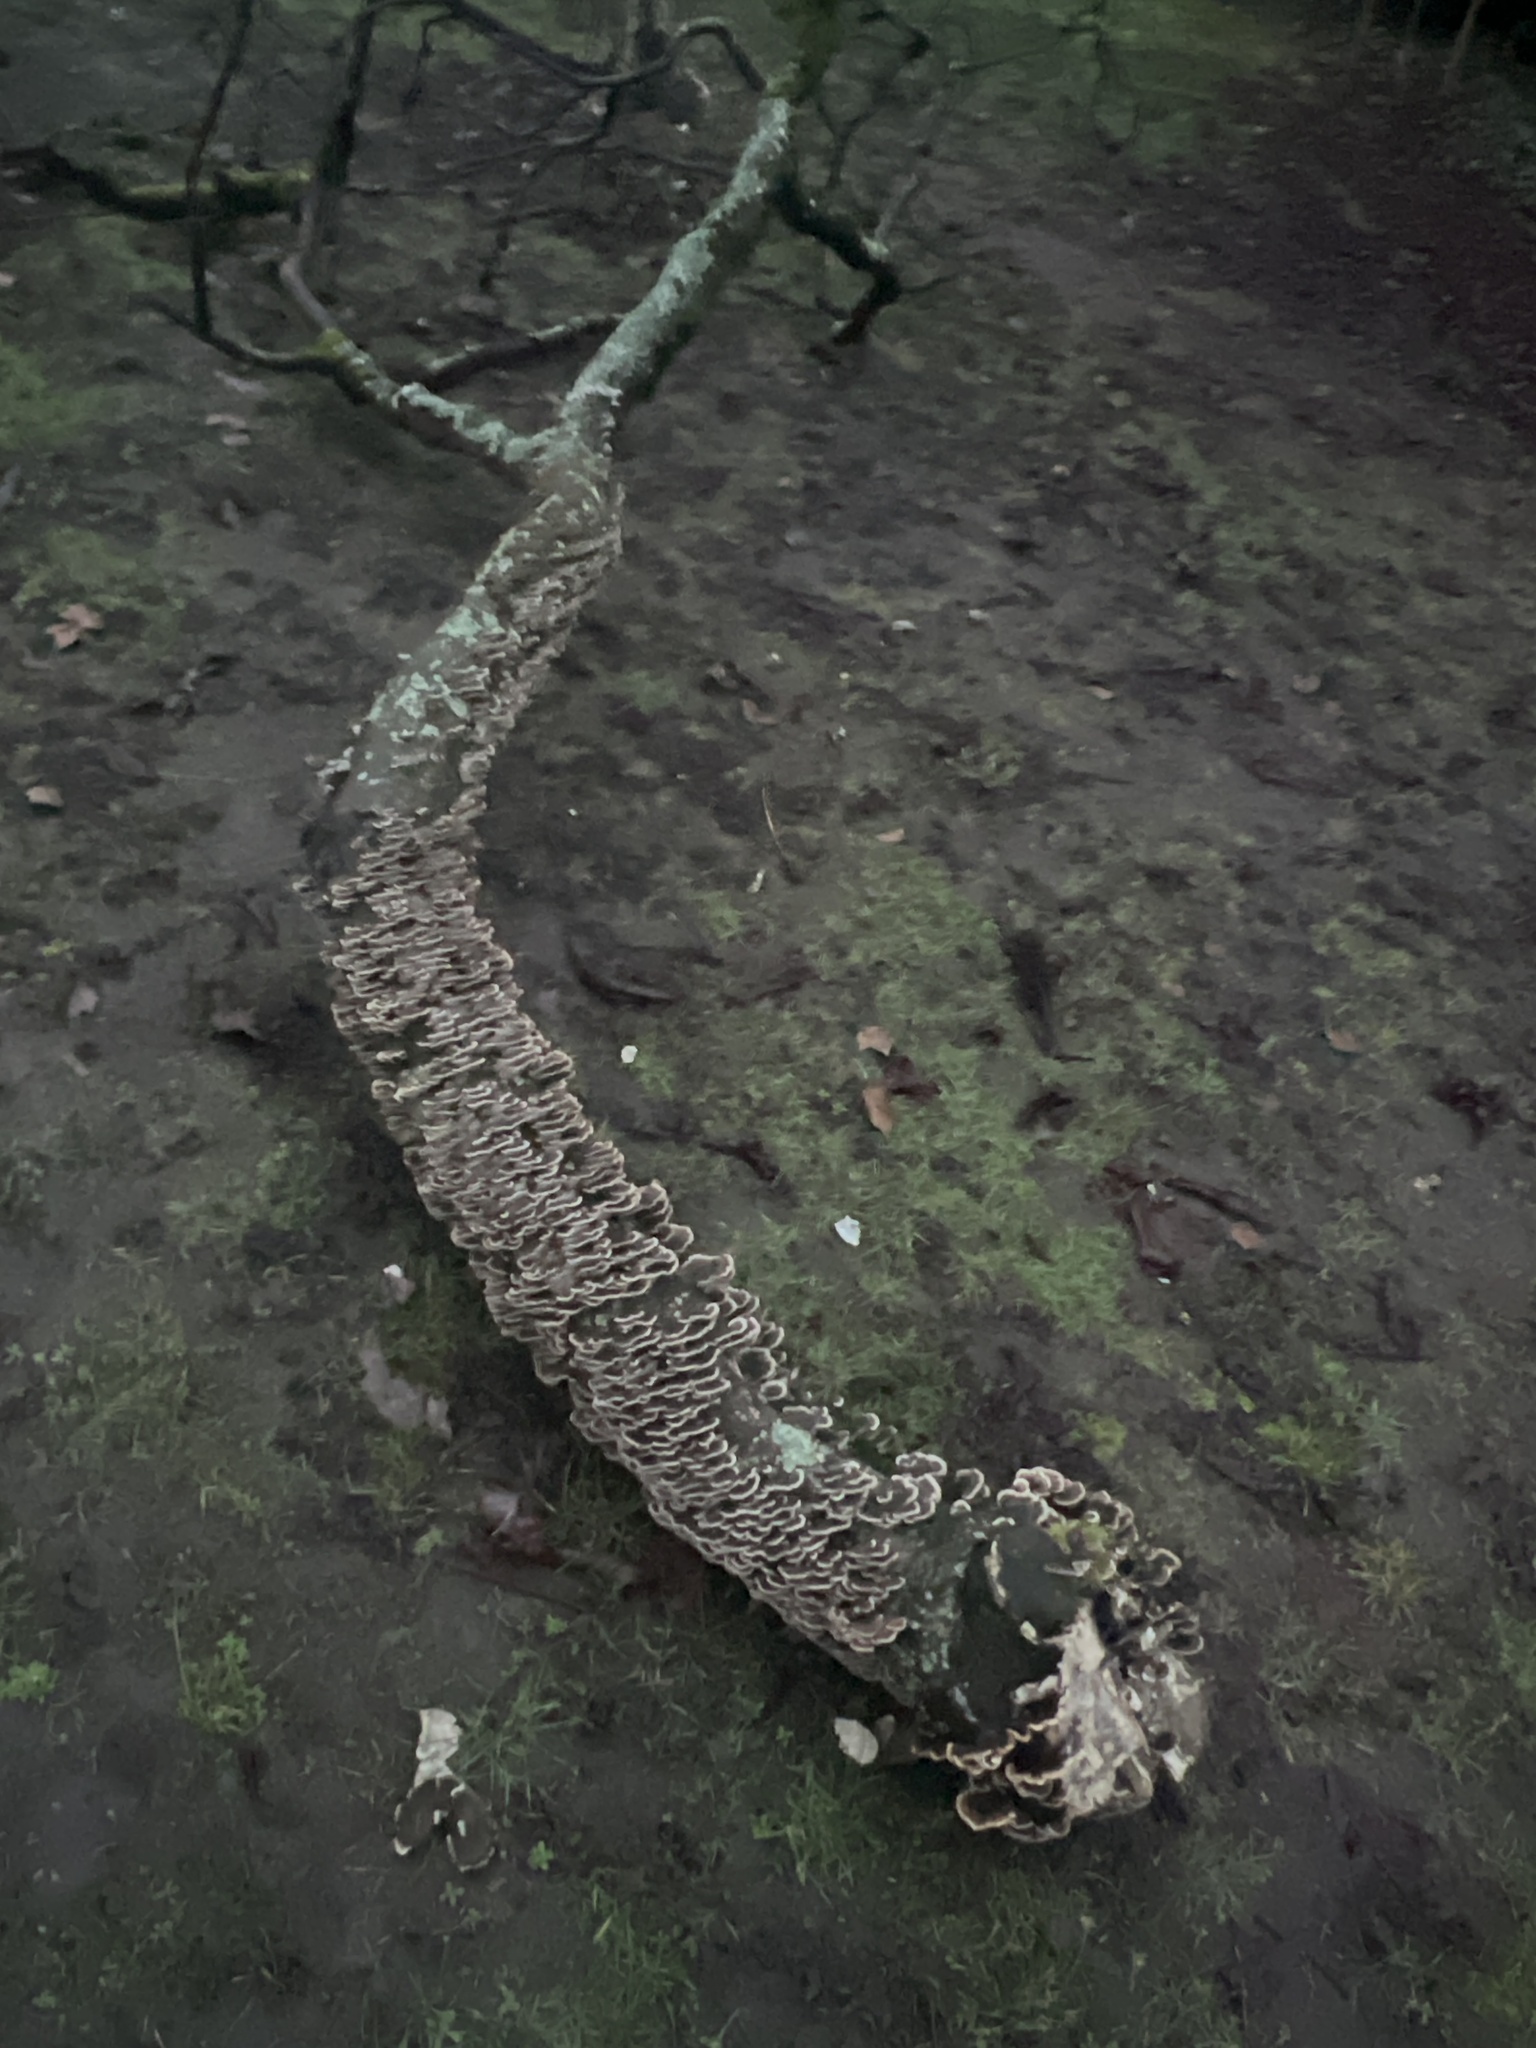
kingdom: Fungi
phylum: Basidiomycota
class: Agaricomycetes
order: Polyporales
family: Polyporaceae
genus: Trametes
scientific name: Trametes versicolor
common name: Turkeytail
